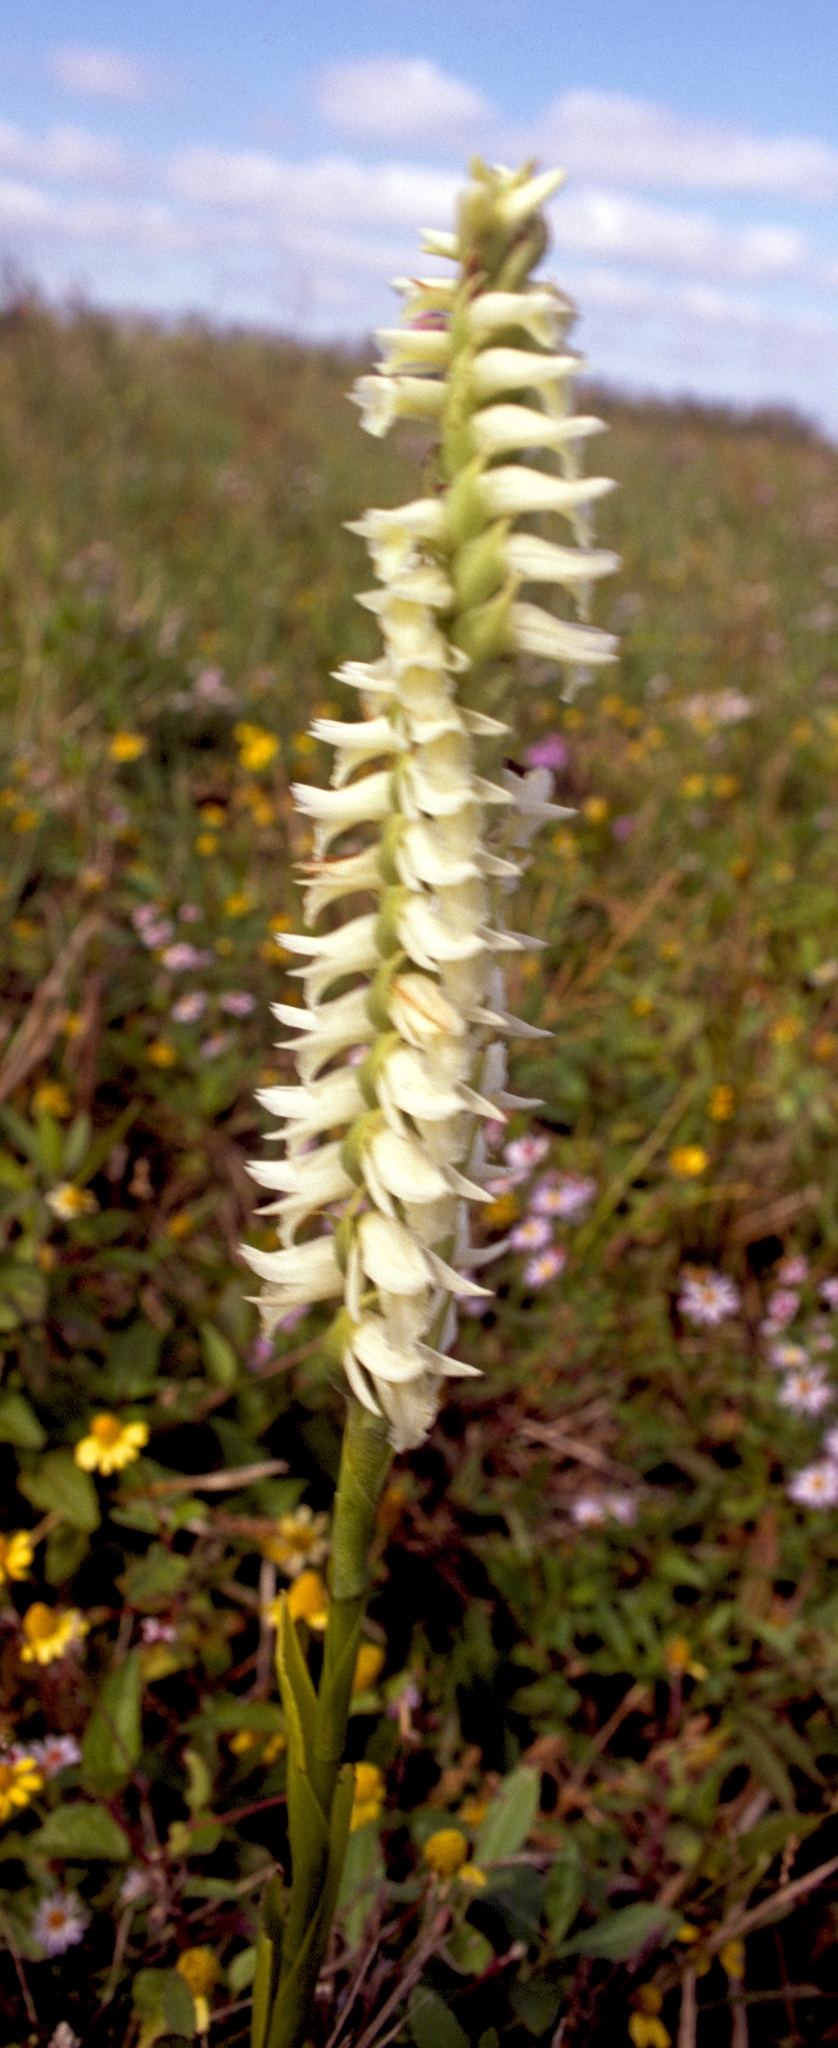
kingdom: Plantae
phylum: Tracheophyta
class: Liliopsida
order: Asparagales
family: Orchidaceae
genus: Spiranthes
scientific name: Spiranthes odorata
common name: Marsh ladies'-tresses
